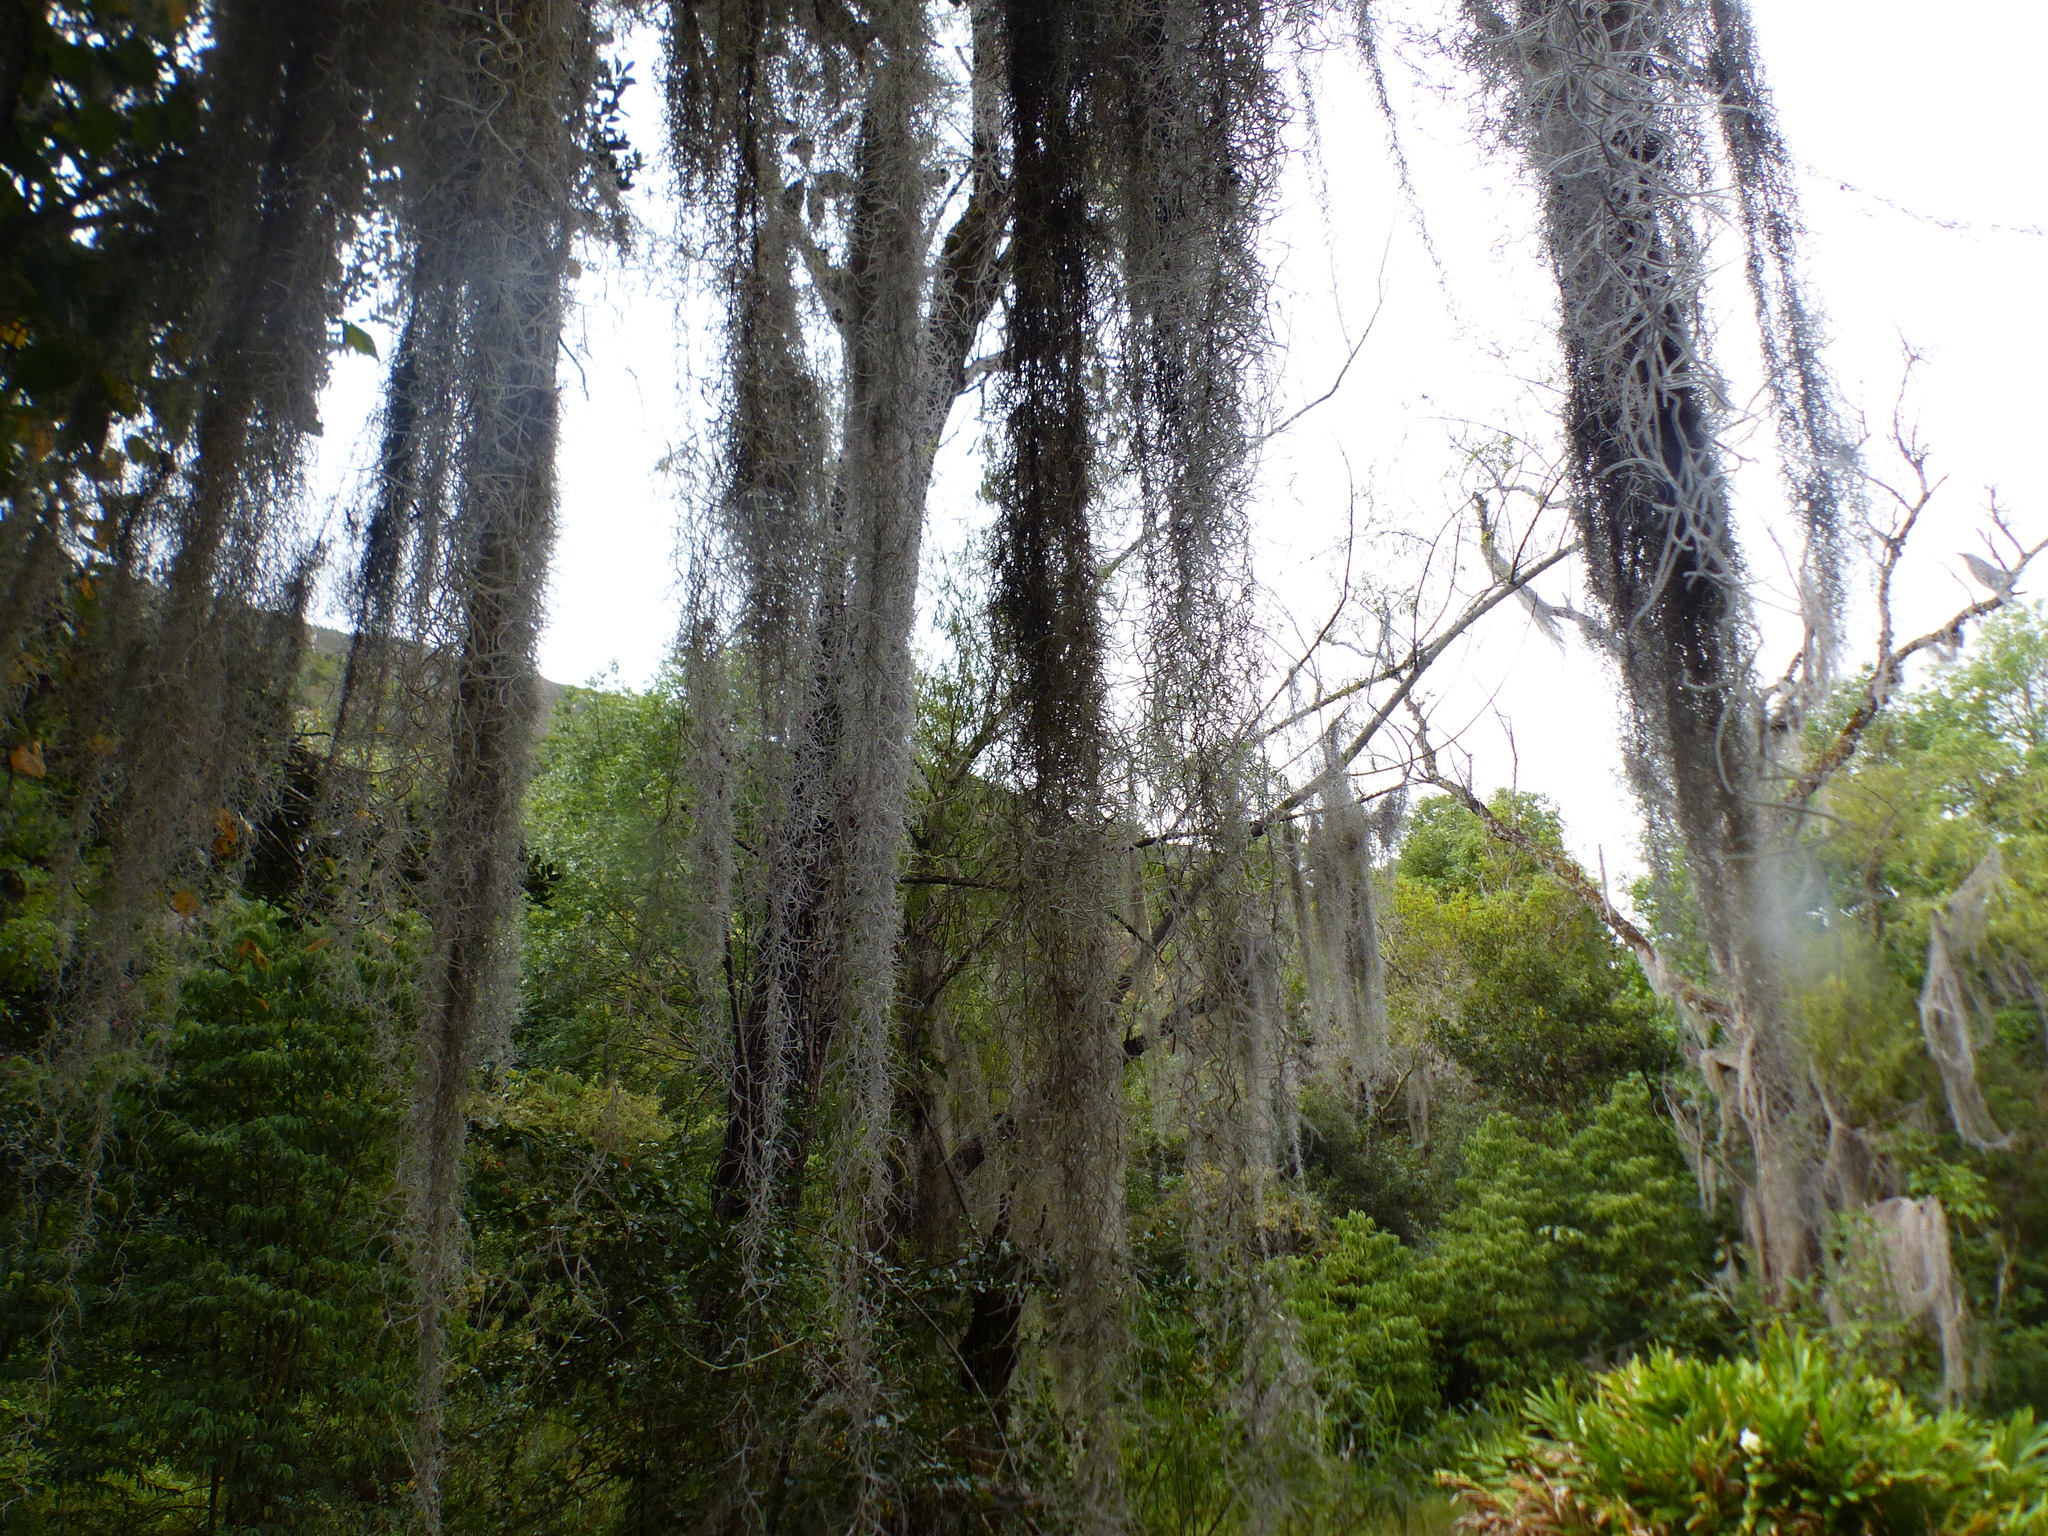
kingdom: Plantae
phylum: Tracheophyta
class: Liliopsida
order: Poales
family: Bromeliaceae
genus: Tillandsia
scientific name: Tillandsia usneoides
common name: Spanish moss
